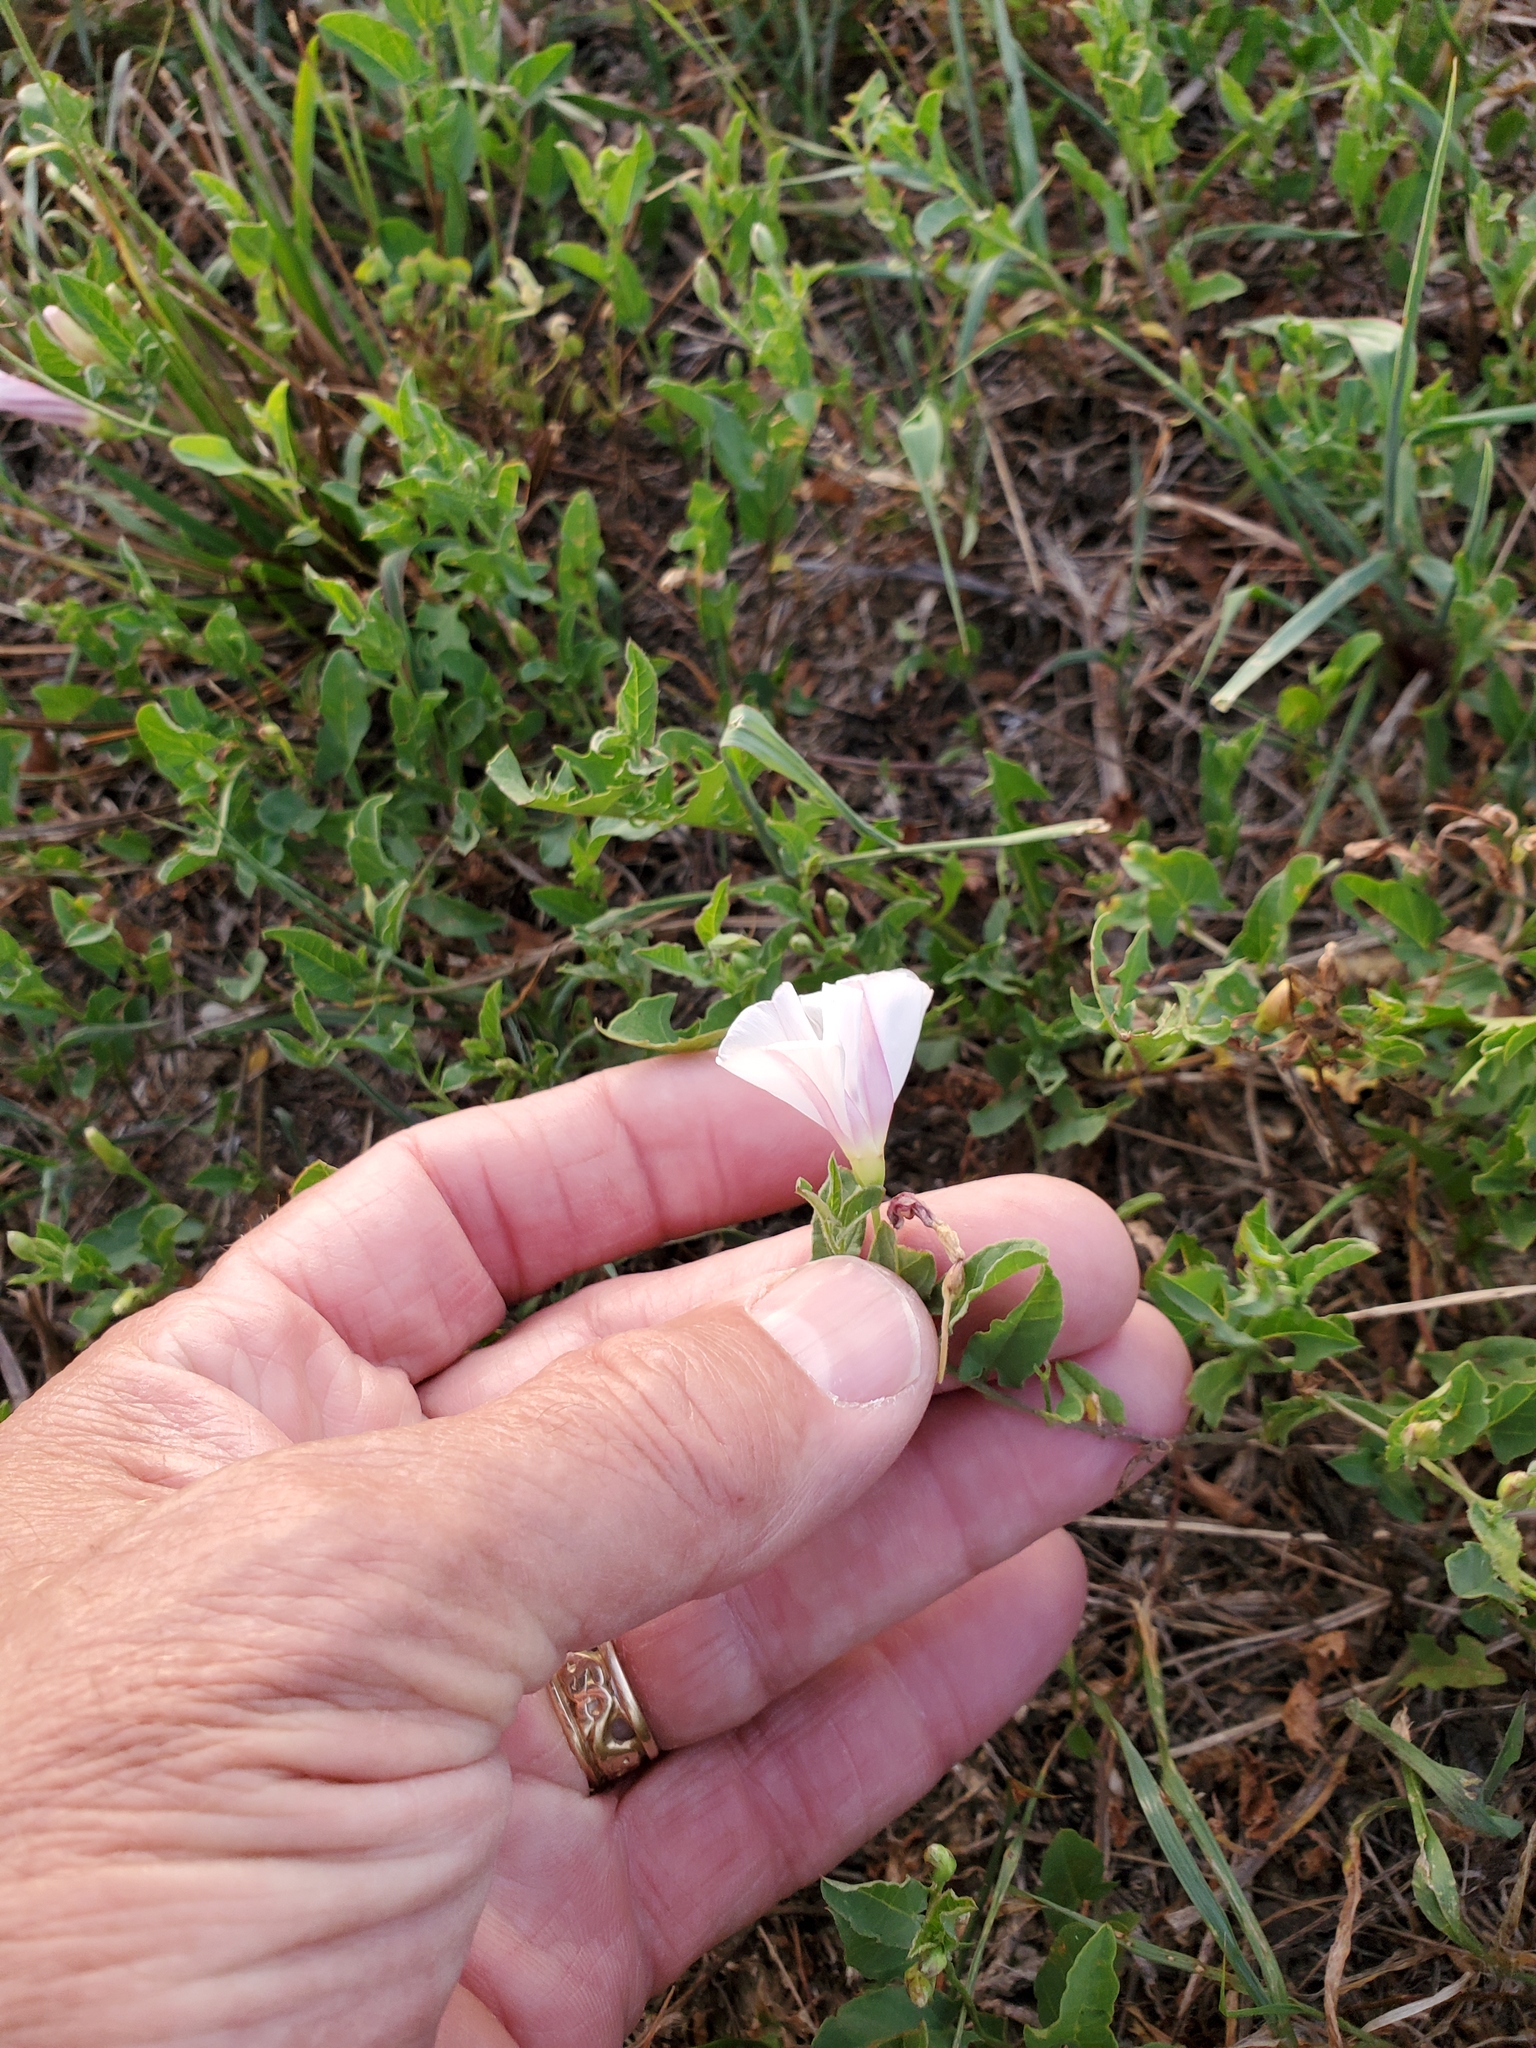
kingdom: Plantae
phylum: Tracheophyta
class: Magnoliopsida
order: Solanales
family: Convolvulaceae
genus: Convolvulus
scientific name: Convolvulus arvensis
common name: Field bindweed
